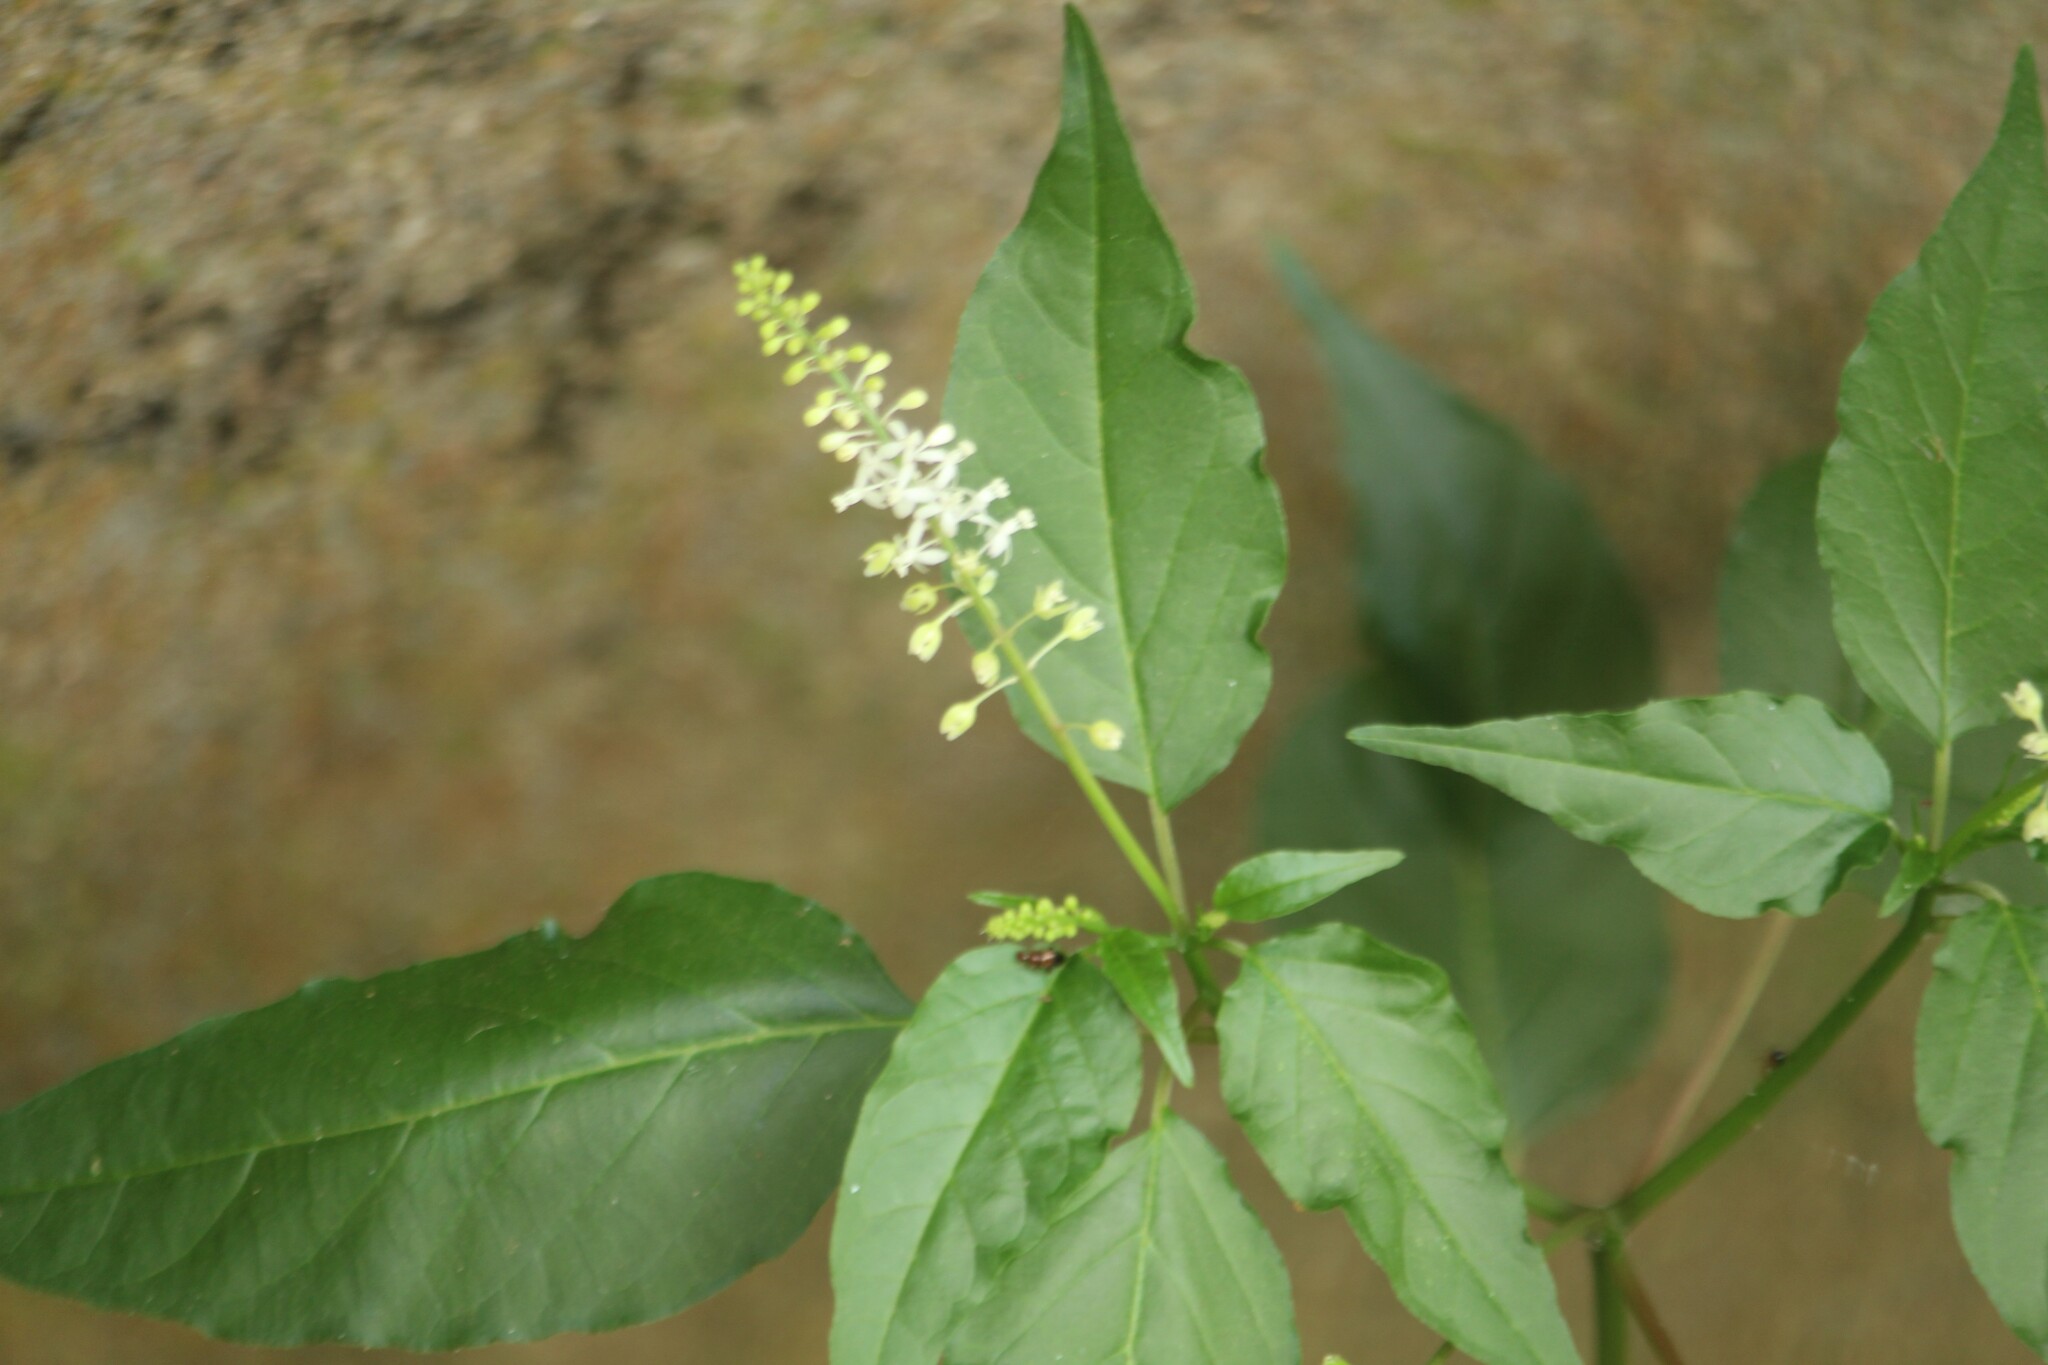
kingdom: Plantae
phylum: Tracheophyta
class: Magnoliopsida
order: Caryophyllales
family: Phytolaccaceae
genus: Rivina
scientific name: Rivina humilis
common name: Rougeplant
